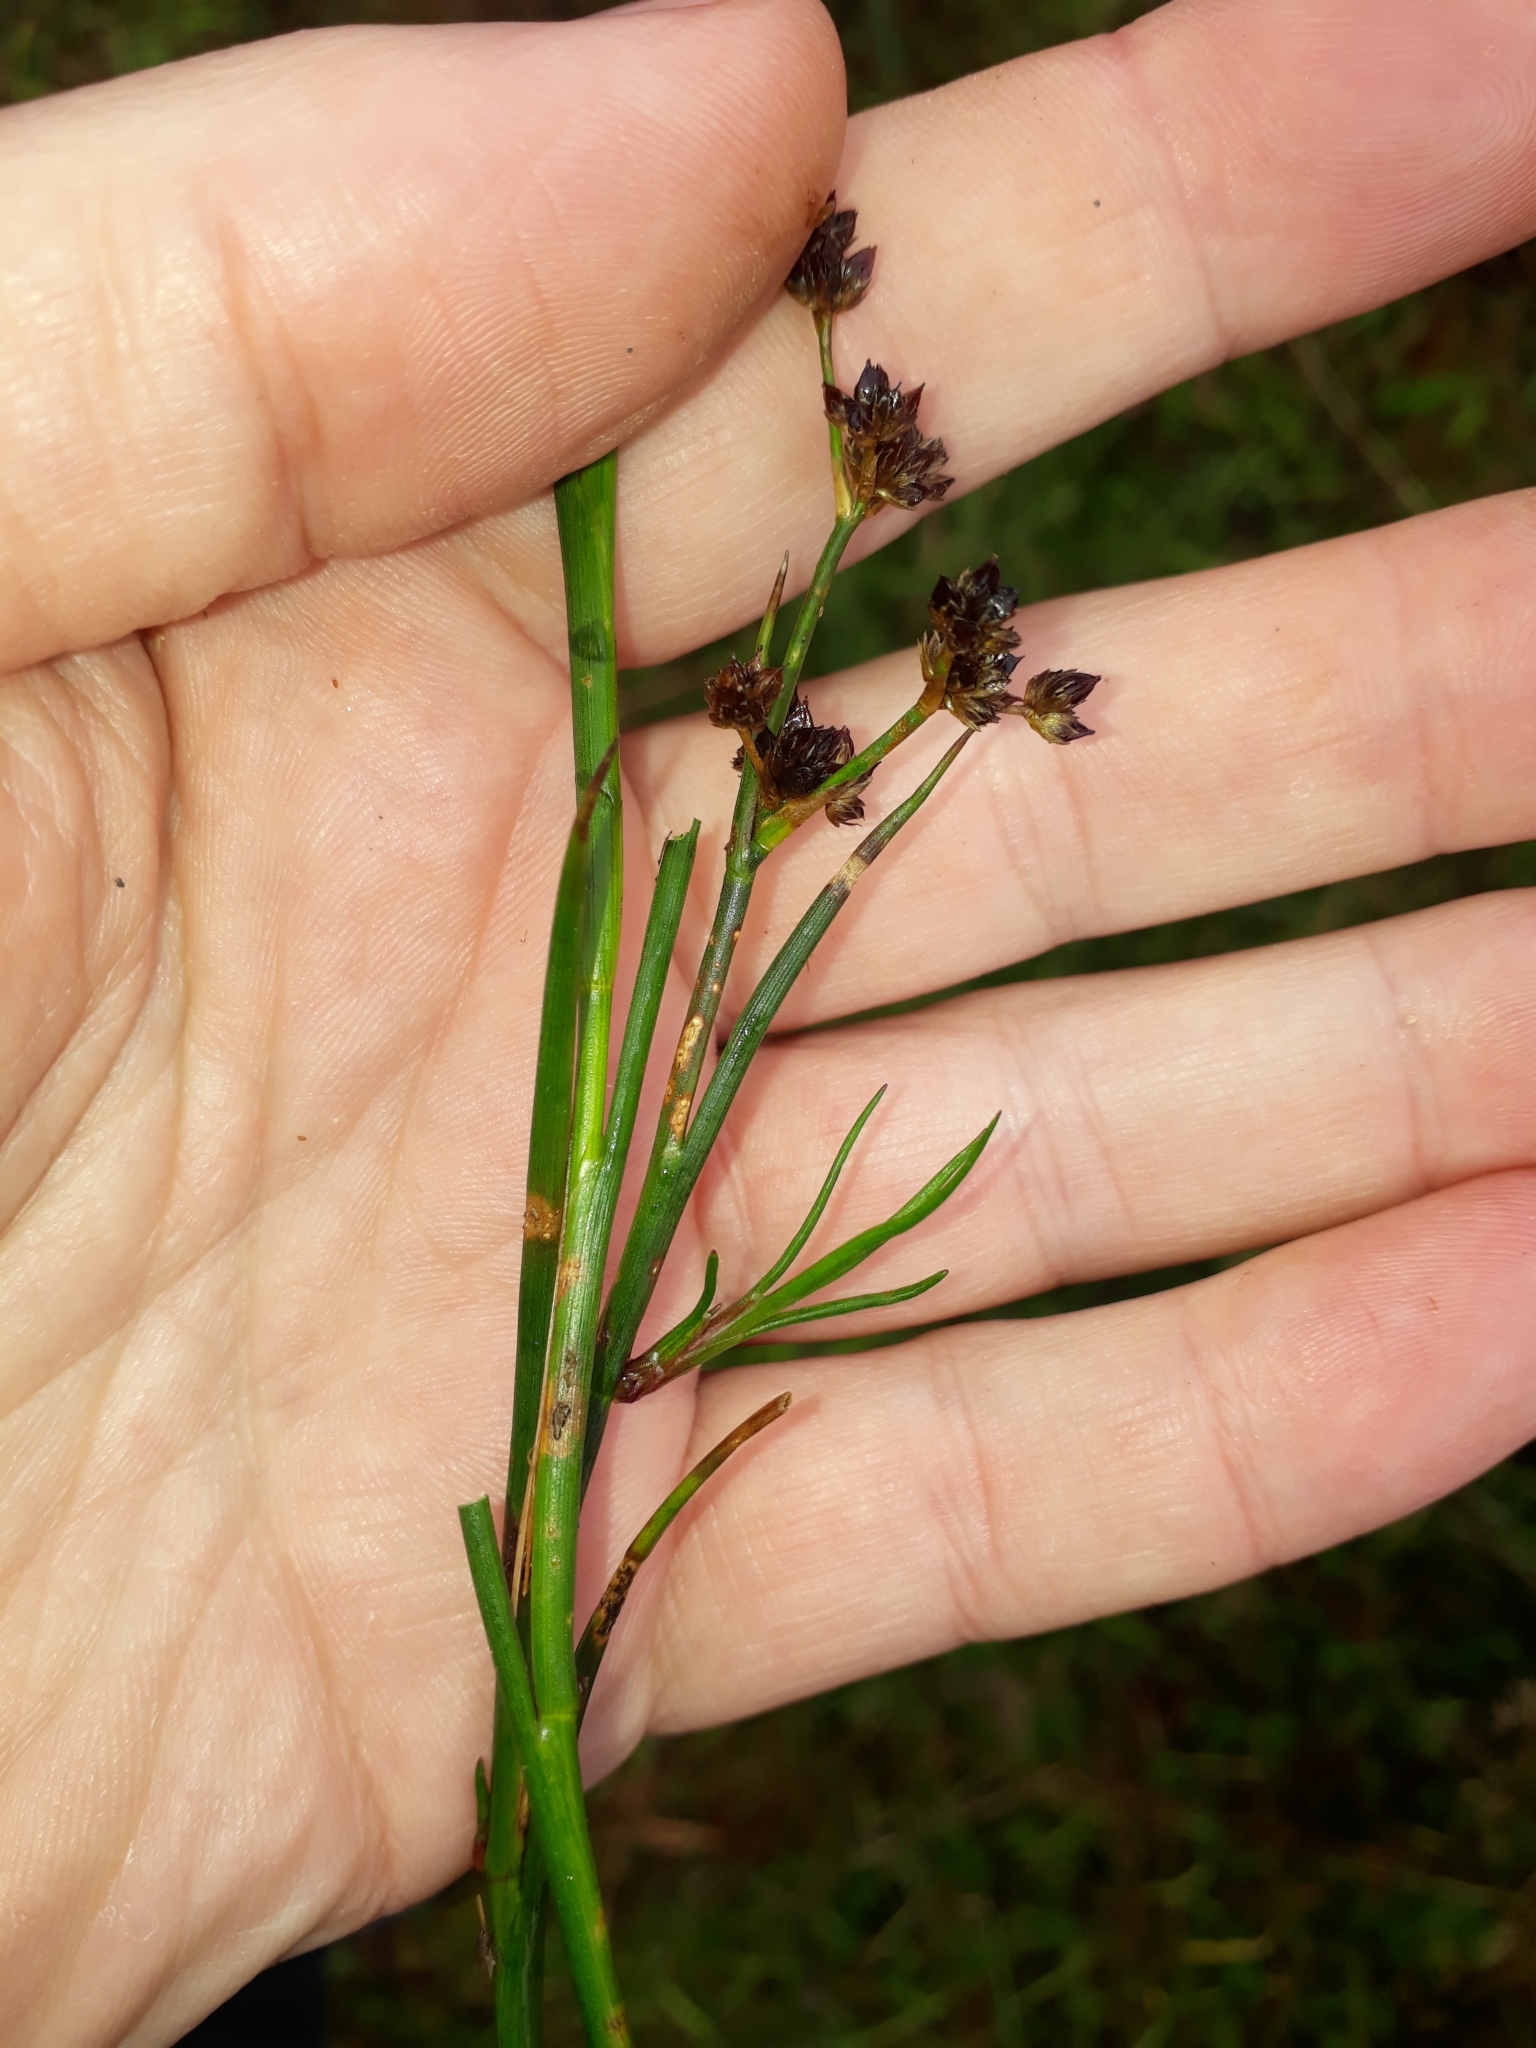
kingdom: Plantae
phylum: Tracheophyta
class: Liliopsida
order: Poales
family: Juncaceae
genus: Juncus
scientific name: Juncus articulatus
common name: Jointed rush
